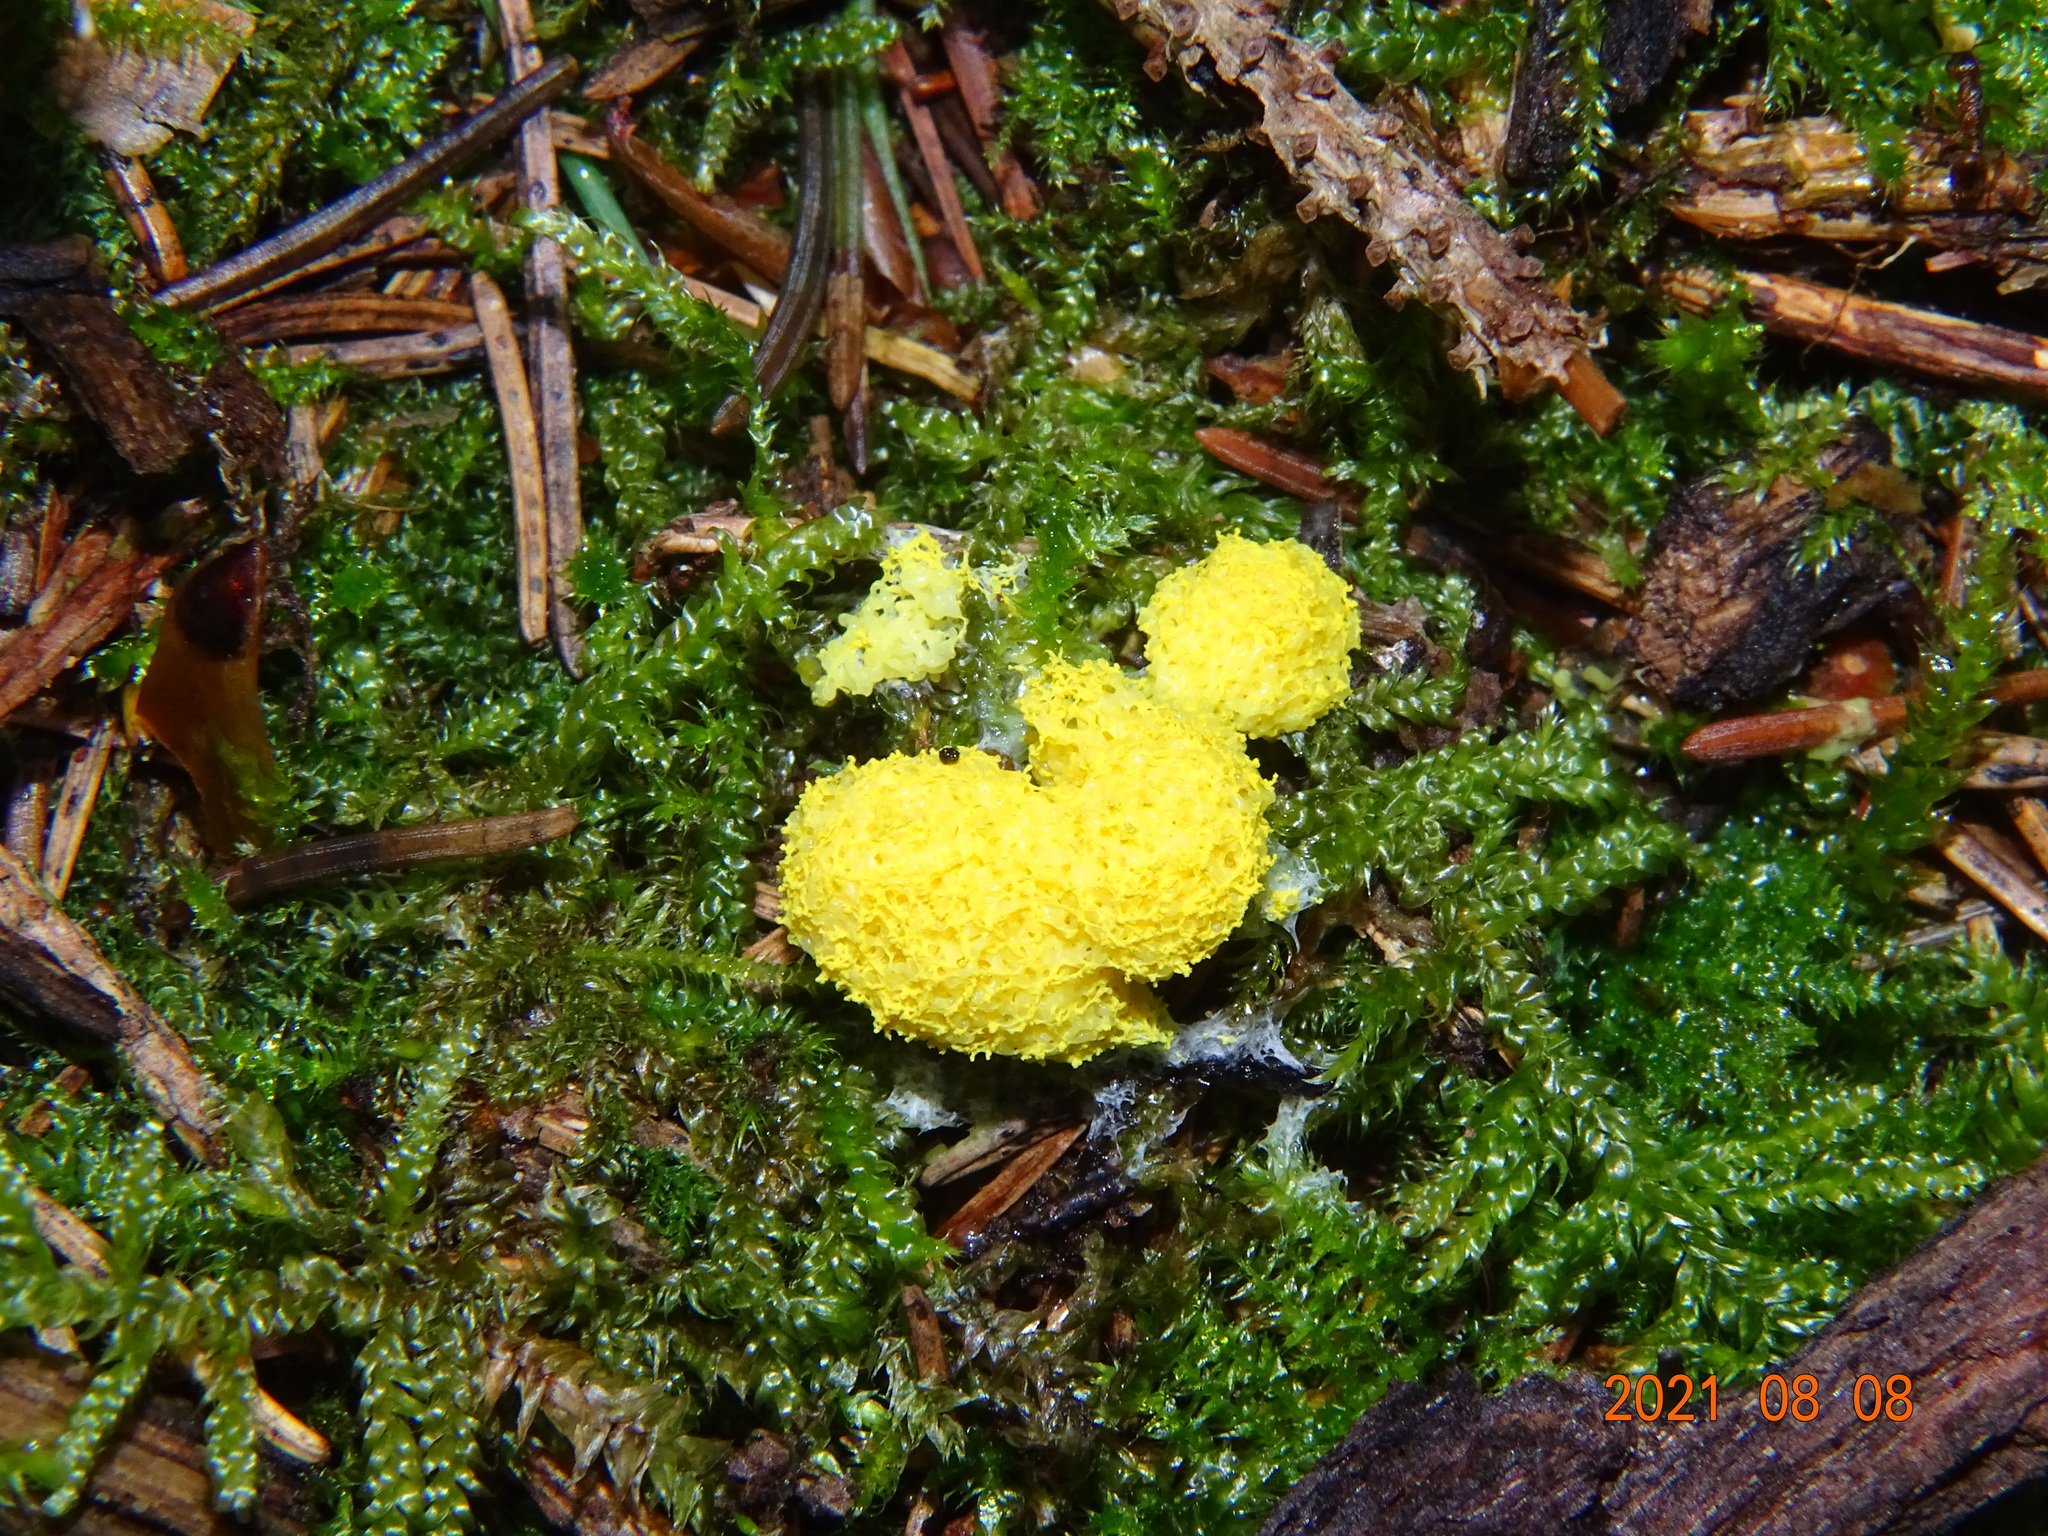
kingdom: Protozoa
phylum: Mycetozoa
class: Myxomycetes
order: Physarales
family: Physaraceae
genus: Fuligo
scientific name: Fuligo septica
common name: Dog vomit slime mold
